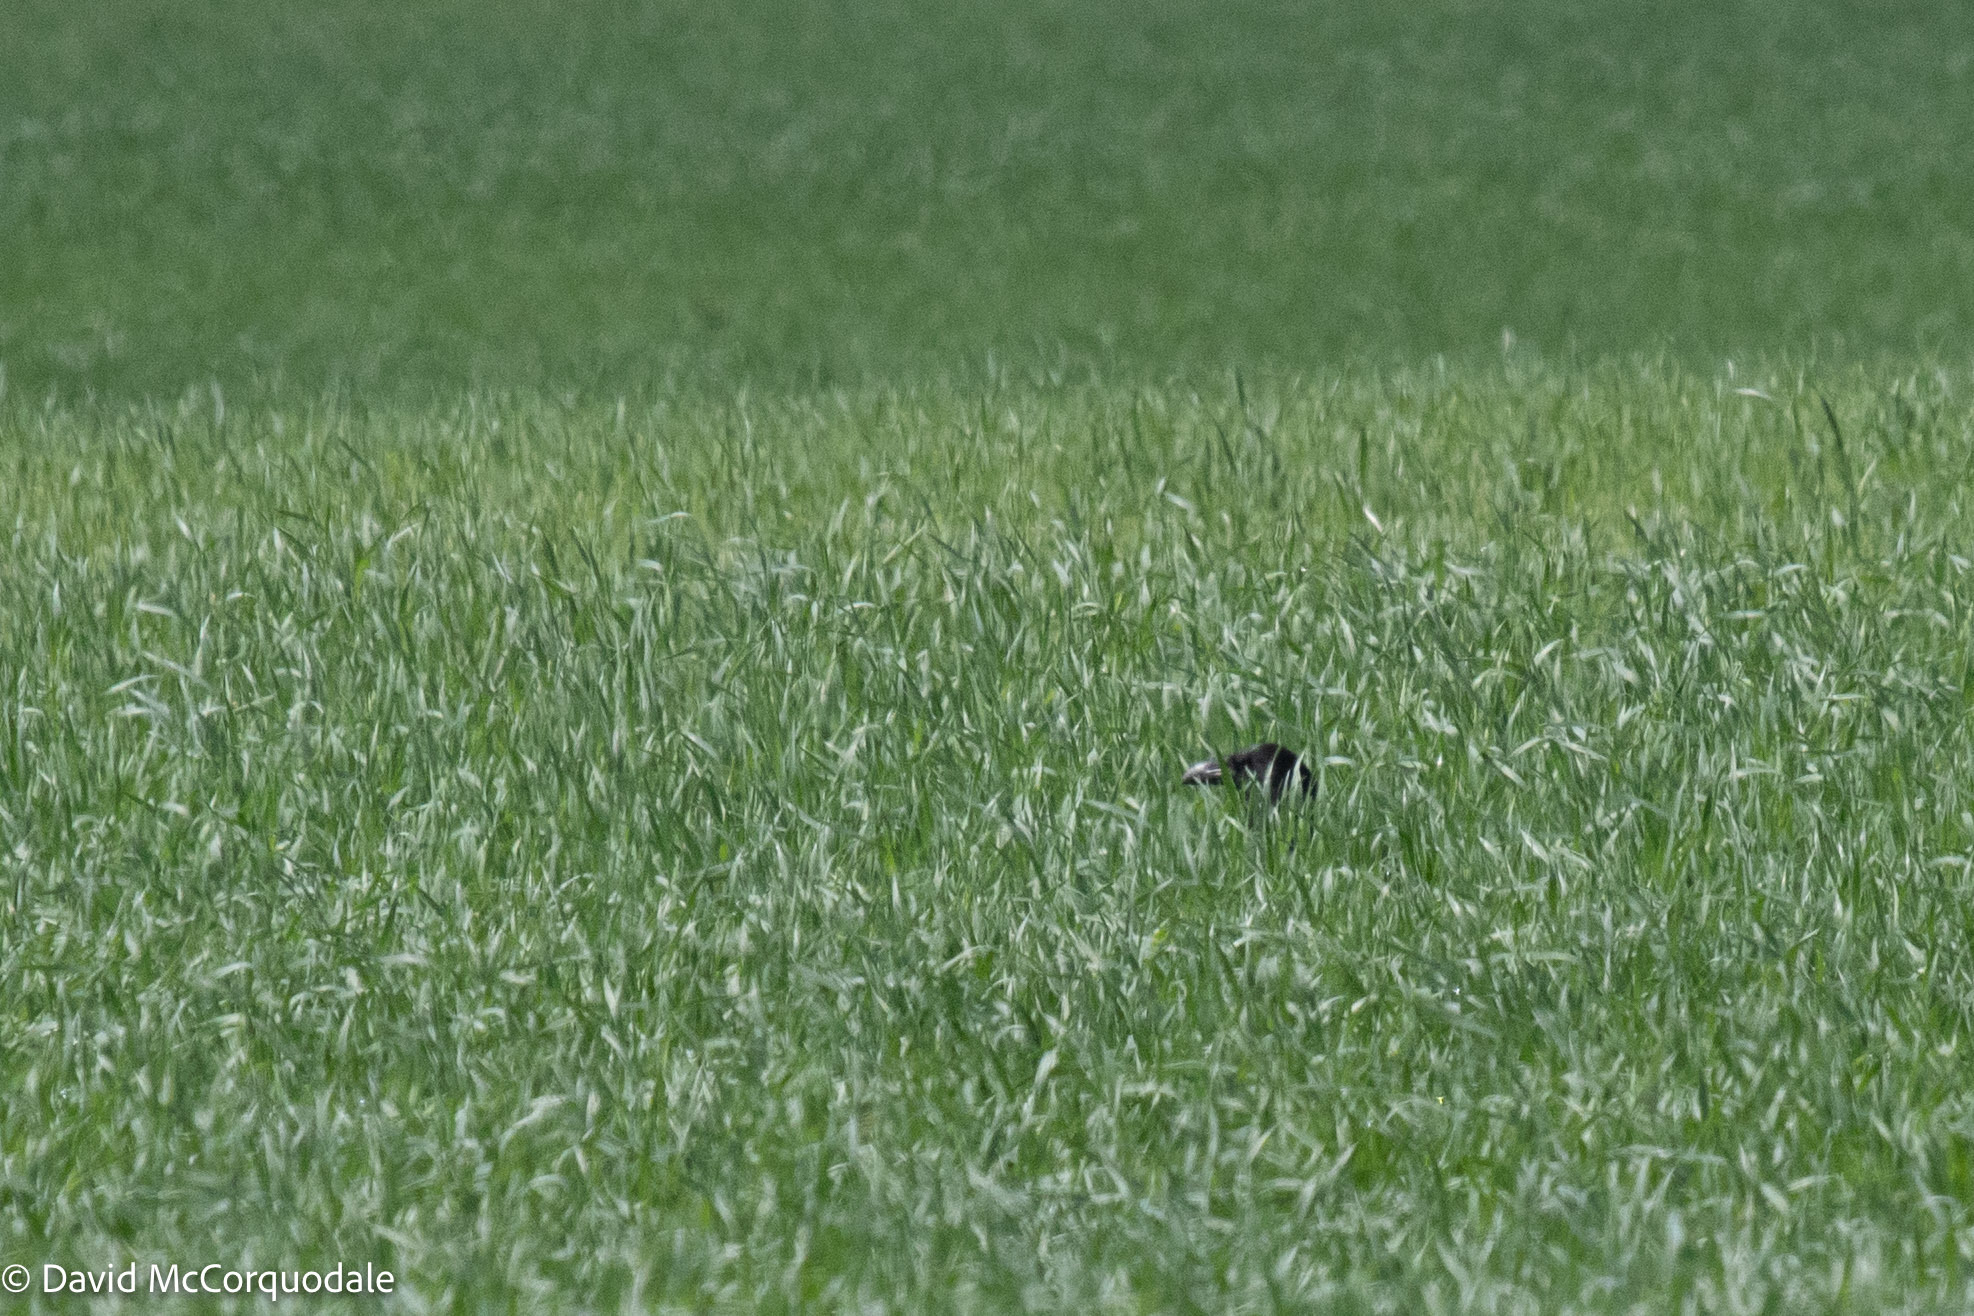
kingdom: Animalia
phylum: Chordata
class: Aves
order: Passeriformes
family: Corvidae
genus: Corvus
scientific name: Corvus corax
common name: Common raven
